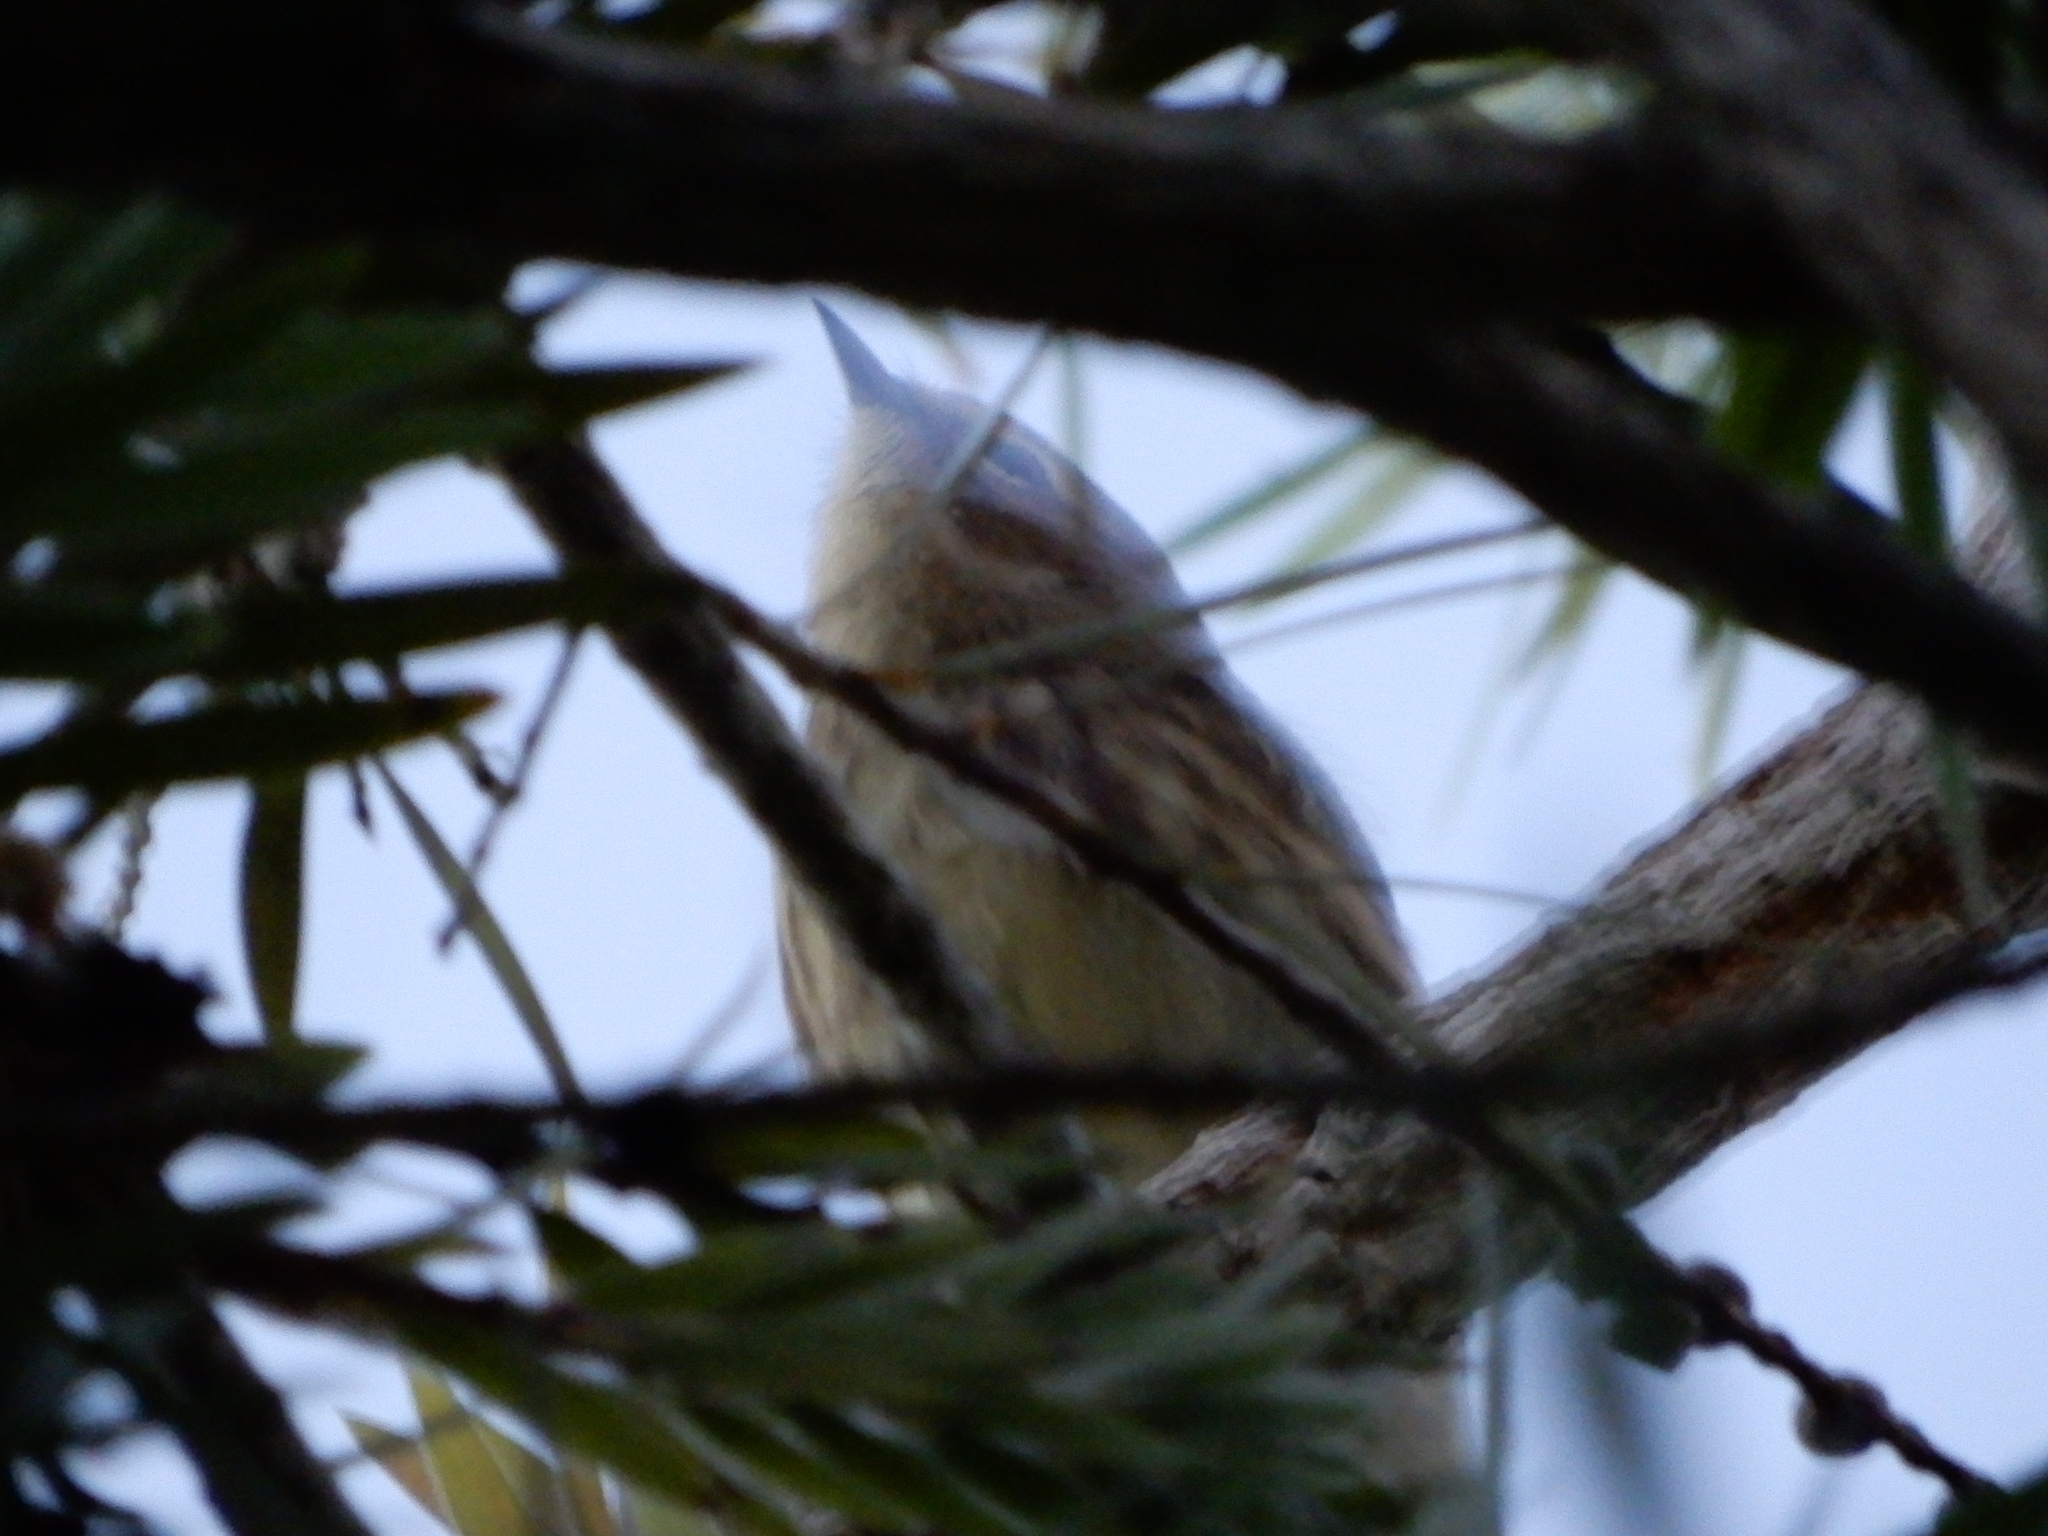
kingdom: Animalia
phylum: Chordata
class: Aves
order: Passeriformes
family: Parulidae
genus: Setophaga
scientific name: Setophaga coronata
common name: Myrtle warbler
